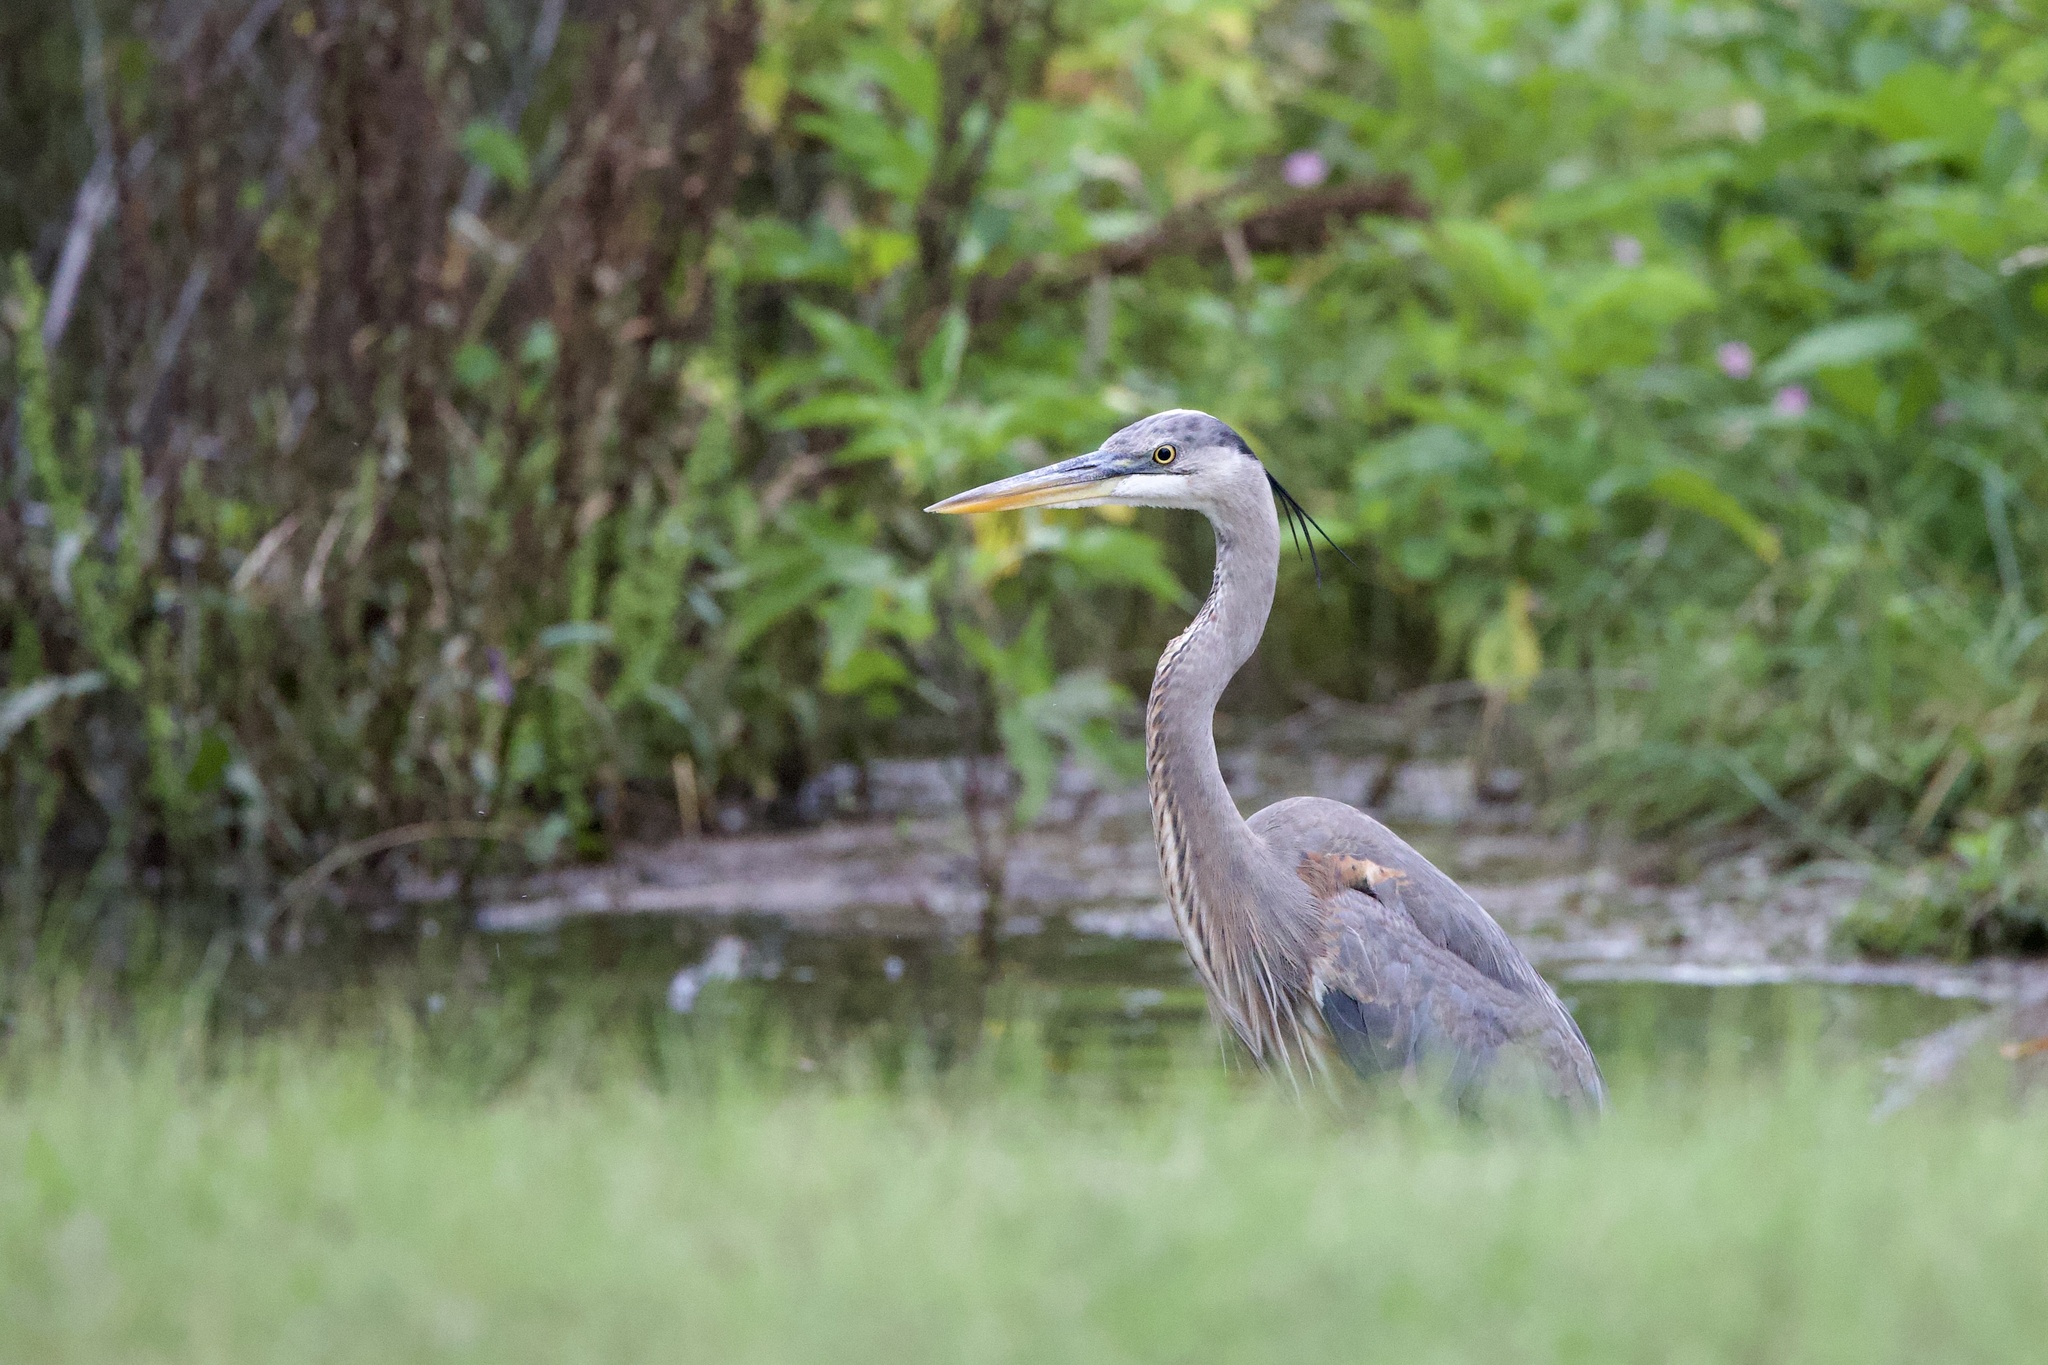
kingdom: Animalia
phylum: Chordata
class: Aves
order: Pelecaniformes
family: Ardeidae
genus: Ardea
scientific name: Ardea herodias
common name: Great blue heron
